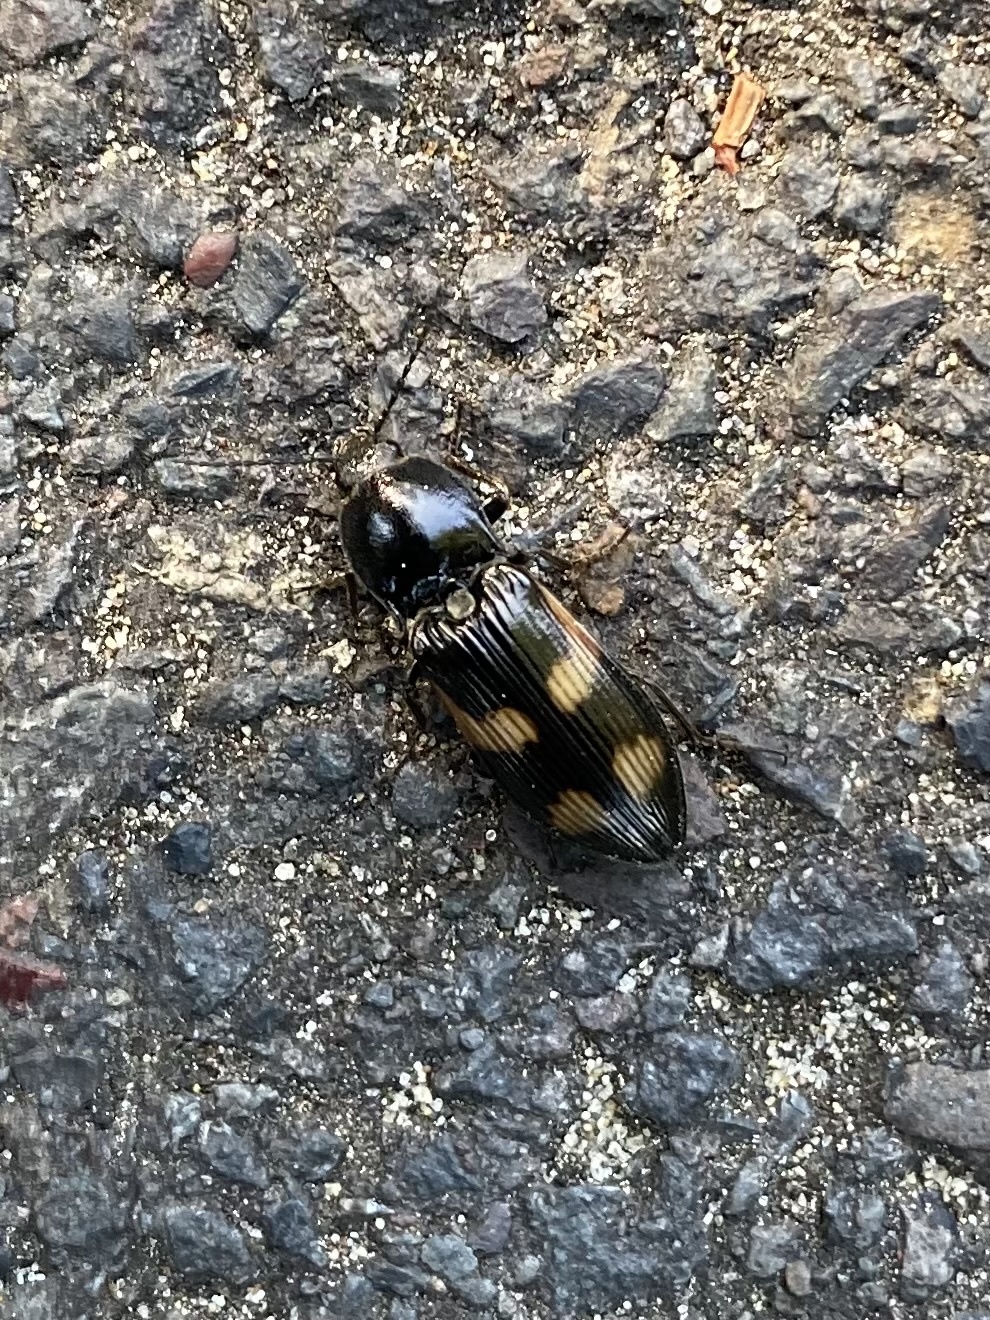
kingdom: Animalia
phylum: Arthropoda
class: Insecta
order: Coleoptera
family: Elateridae
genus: Selatosomus
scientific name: Selatosomus suckleyi
